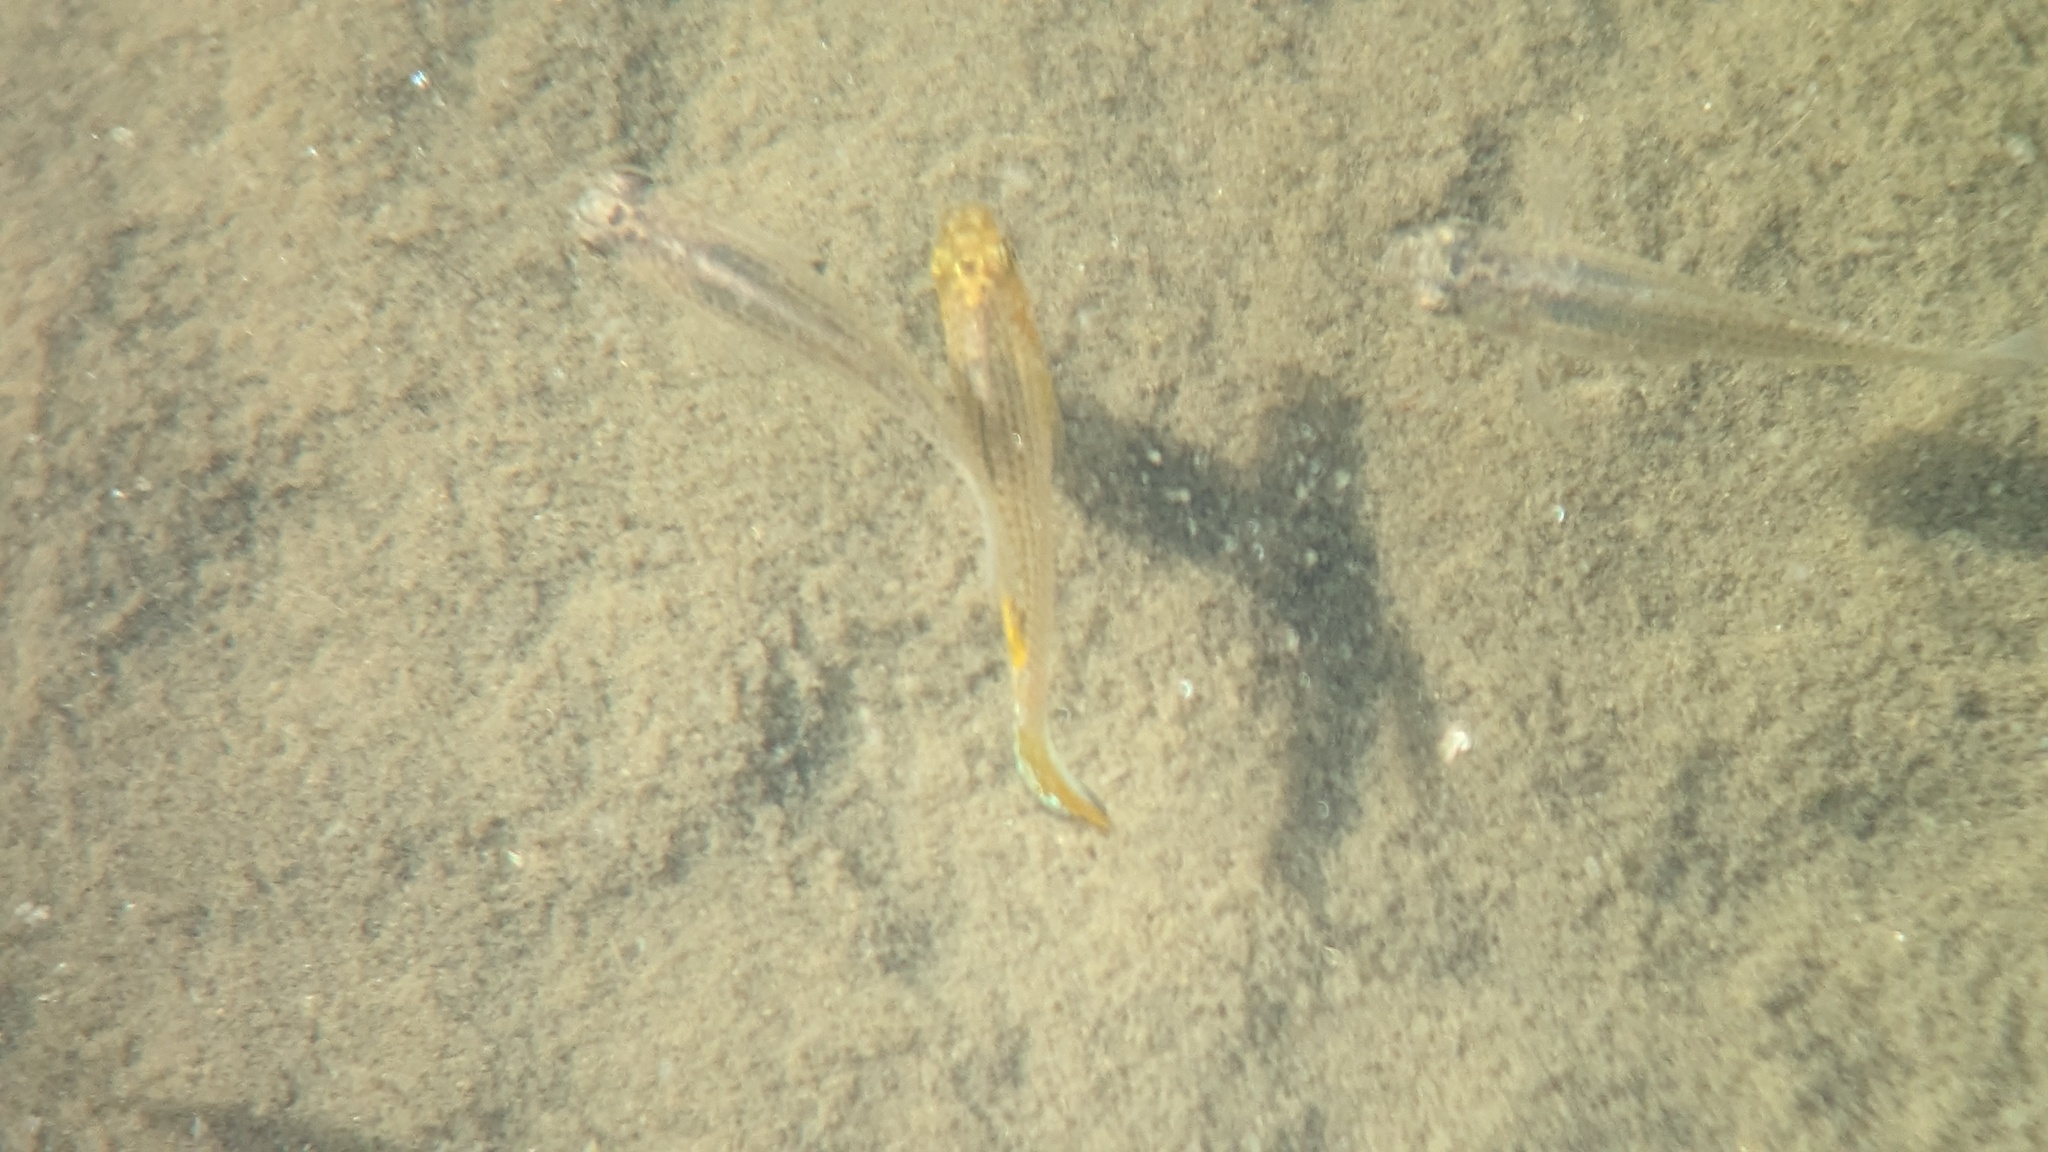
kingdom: Animalia
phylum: Chordata
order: Cyprinodontiformes
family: Poeciliidae
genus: Poecilia
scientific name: Poecilia latipinna
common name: Sailfin molly
